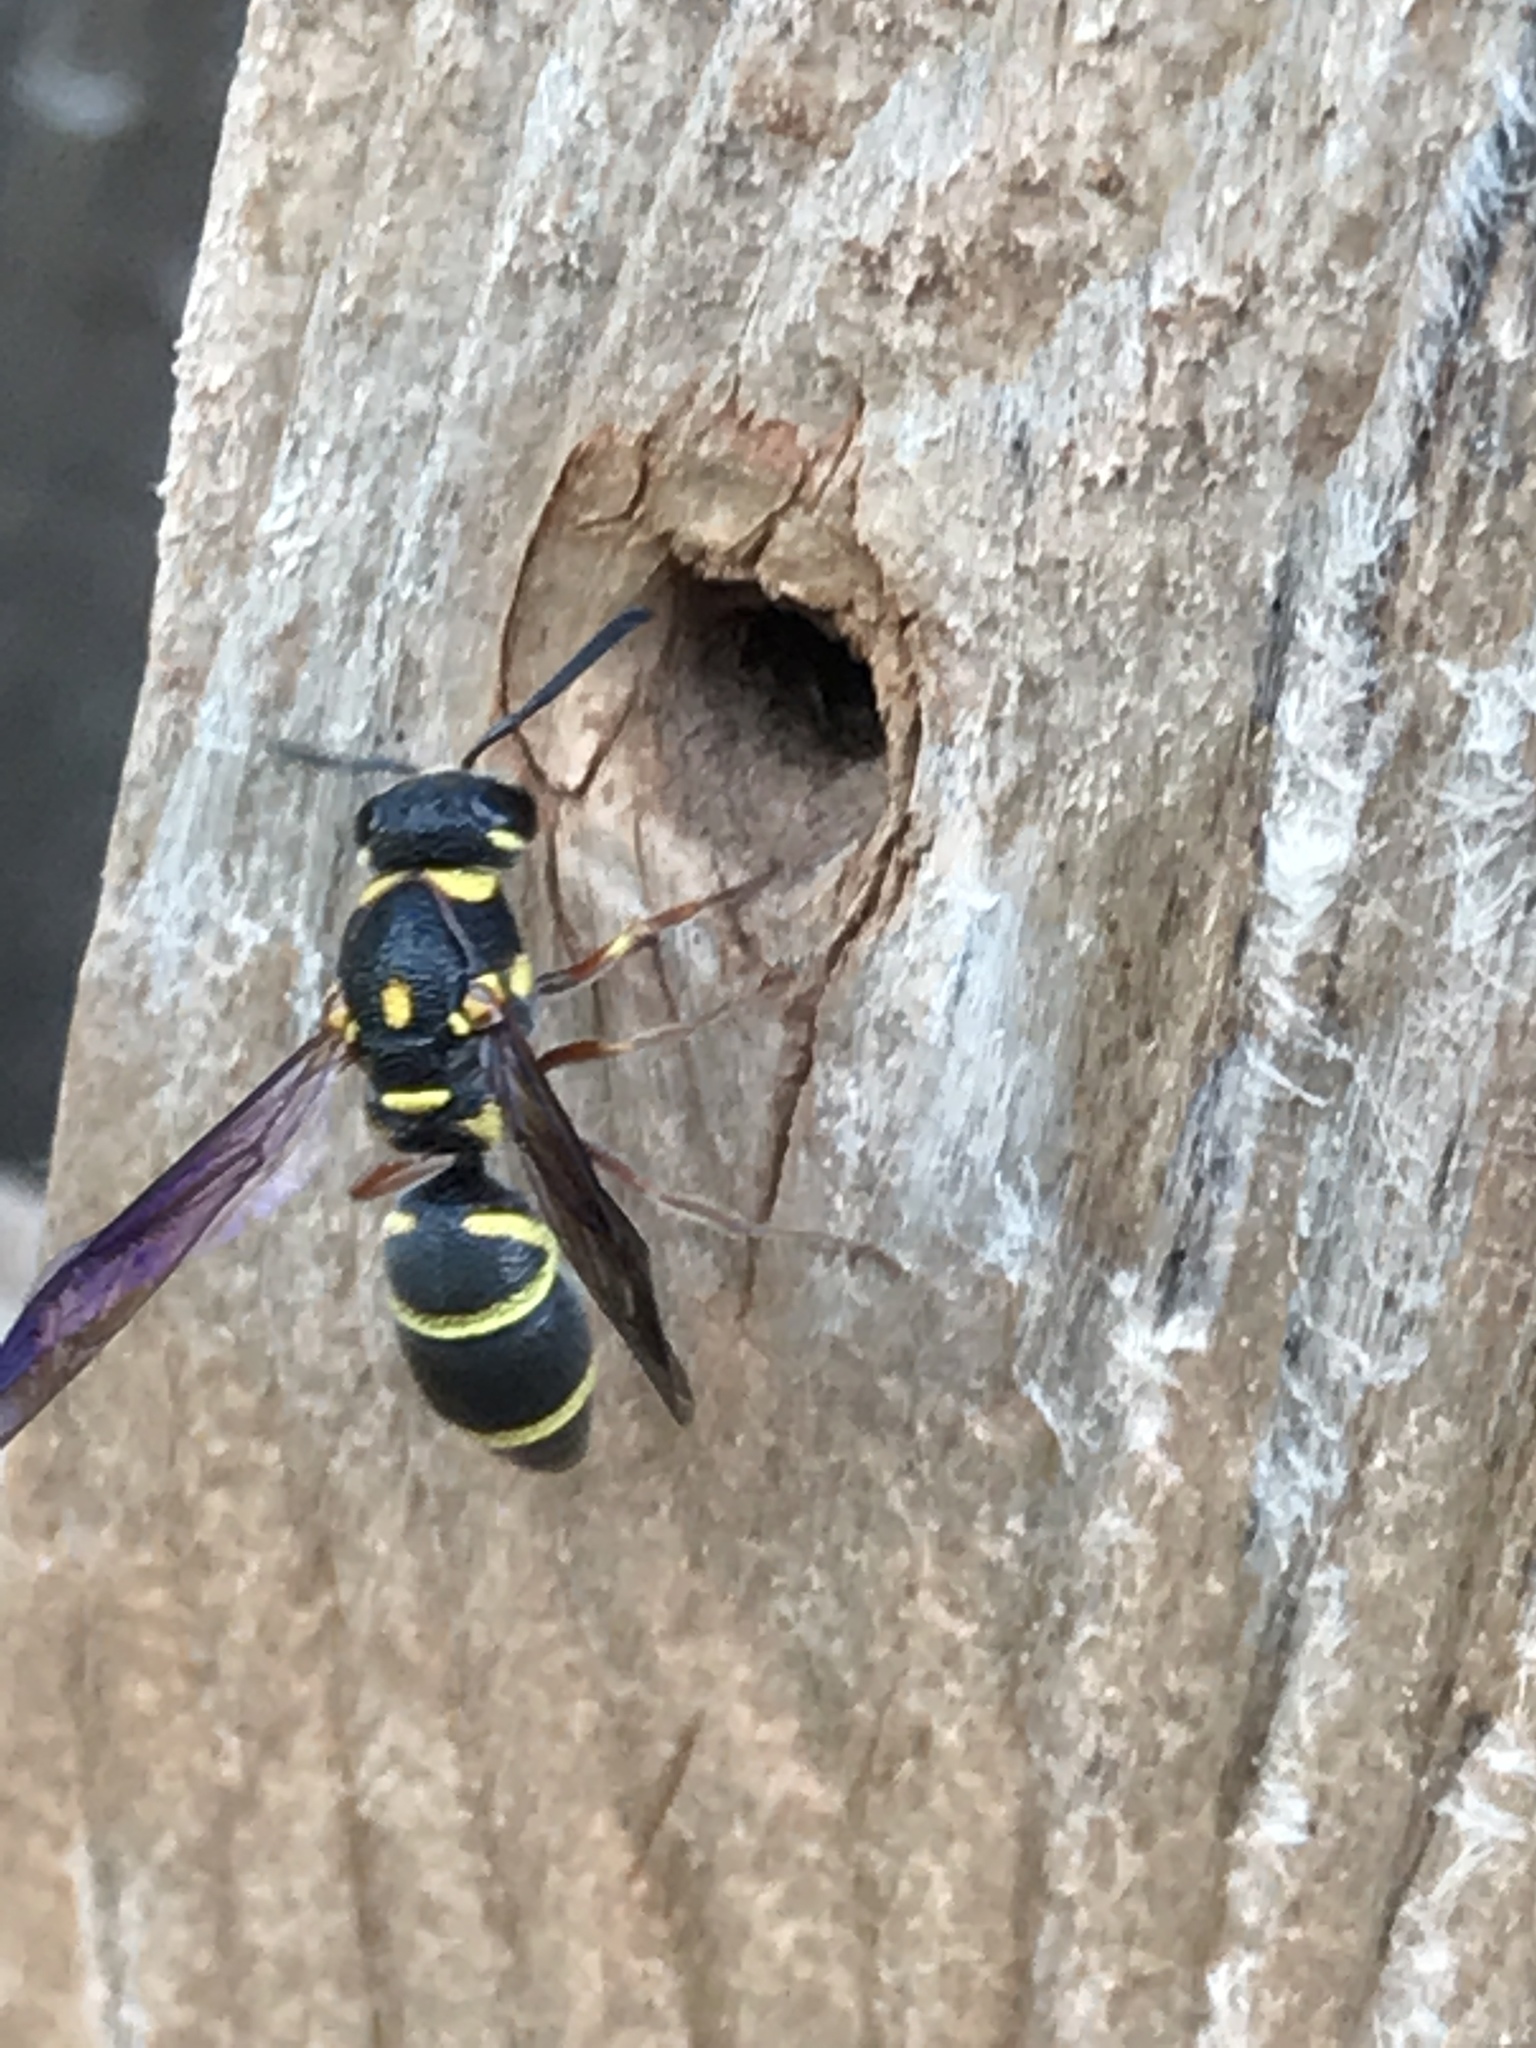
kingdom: Animalia
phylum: Arthropoda
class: Insecta
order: Hymenoptera
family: Eumenidae
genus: Parancistrocerus
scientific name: Parancistrocerus fulvipes
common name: Potter wasp
